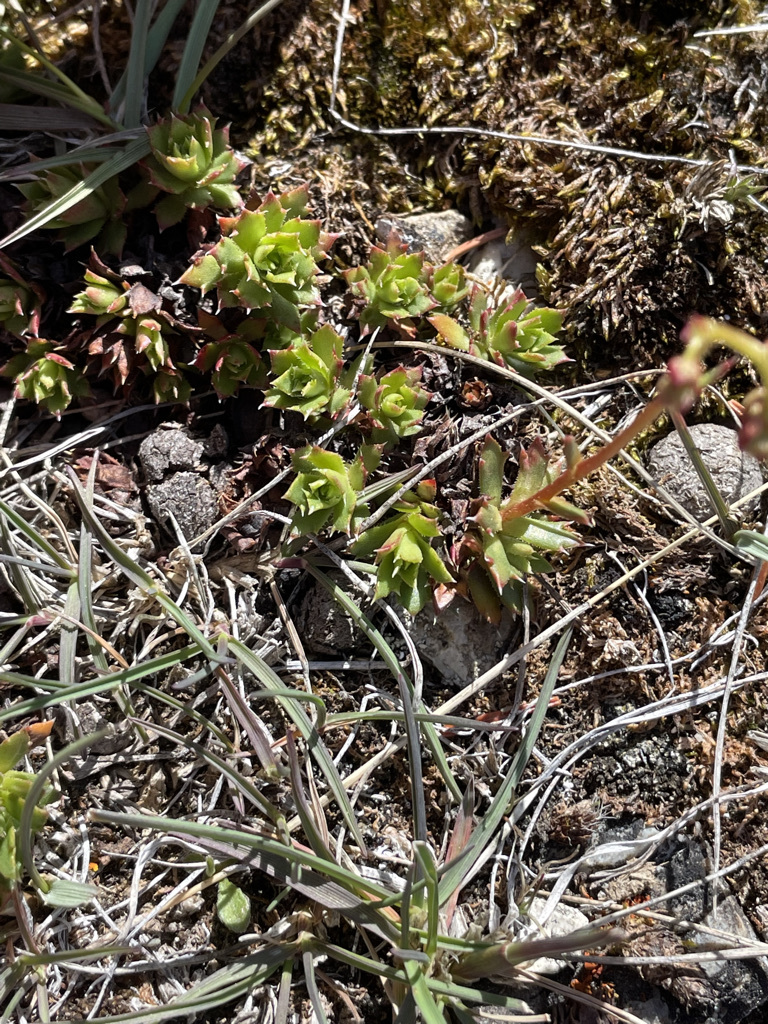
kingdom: Plantae
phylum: Tracheophyta
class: Magnoliopsida
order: Saxifragales
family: Saxifragaceae
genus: Saxifraga
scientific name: Saxifraga tricuspidata
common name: Prickly saxifrage
